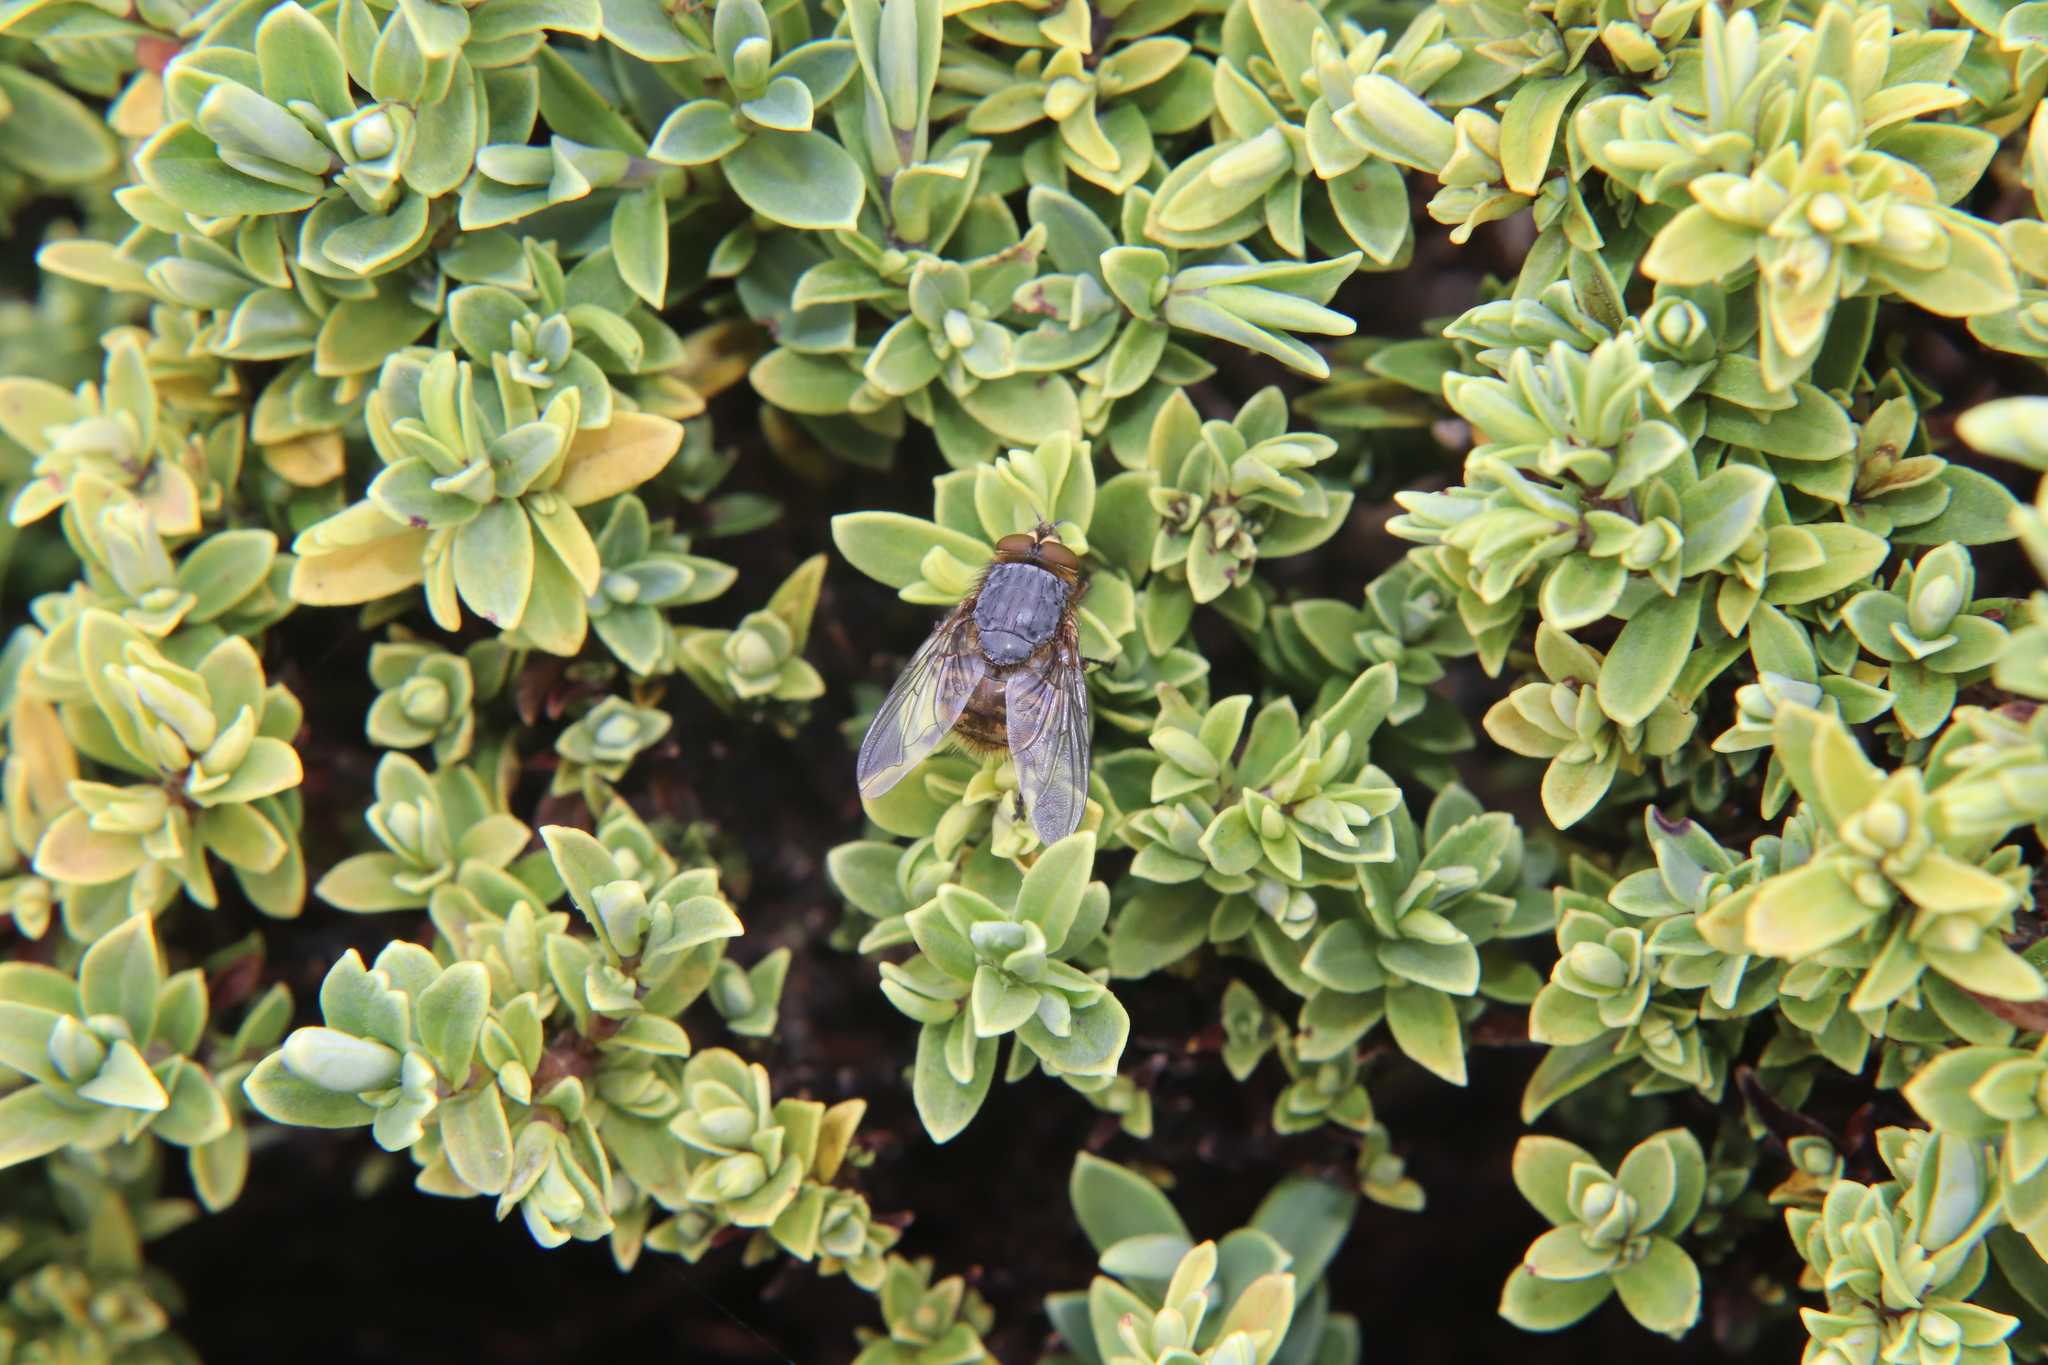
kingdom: Animalia
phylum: Arthropoda
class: Insecta
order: Diptera
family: Calliphoridae
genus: Calliphora
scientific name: Calliphora hilli
